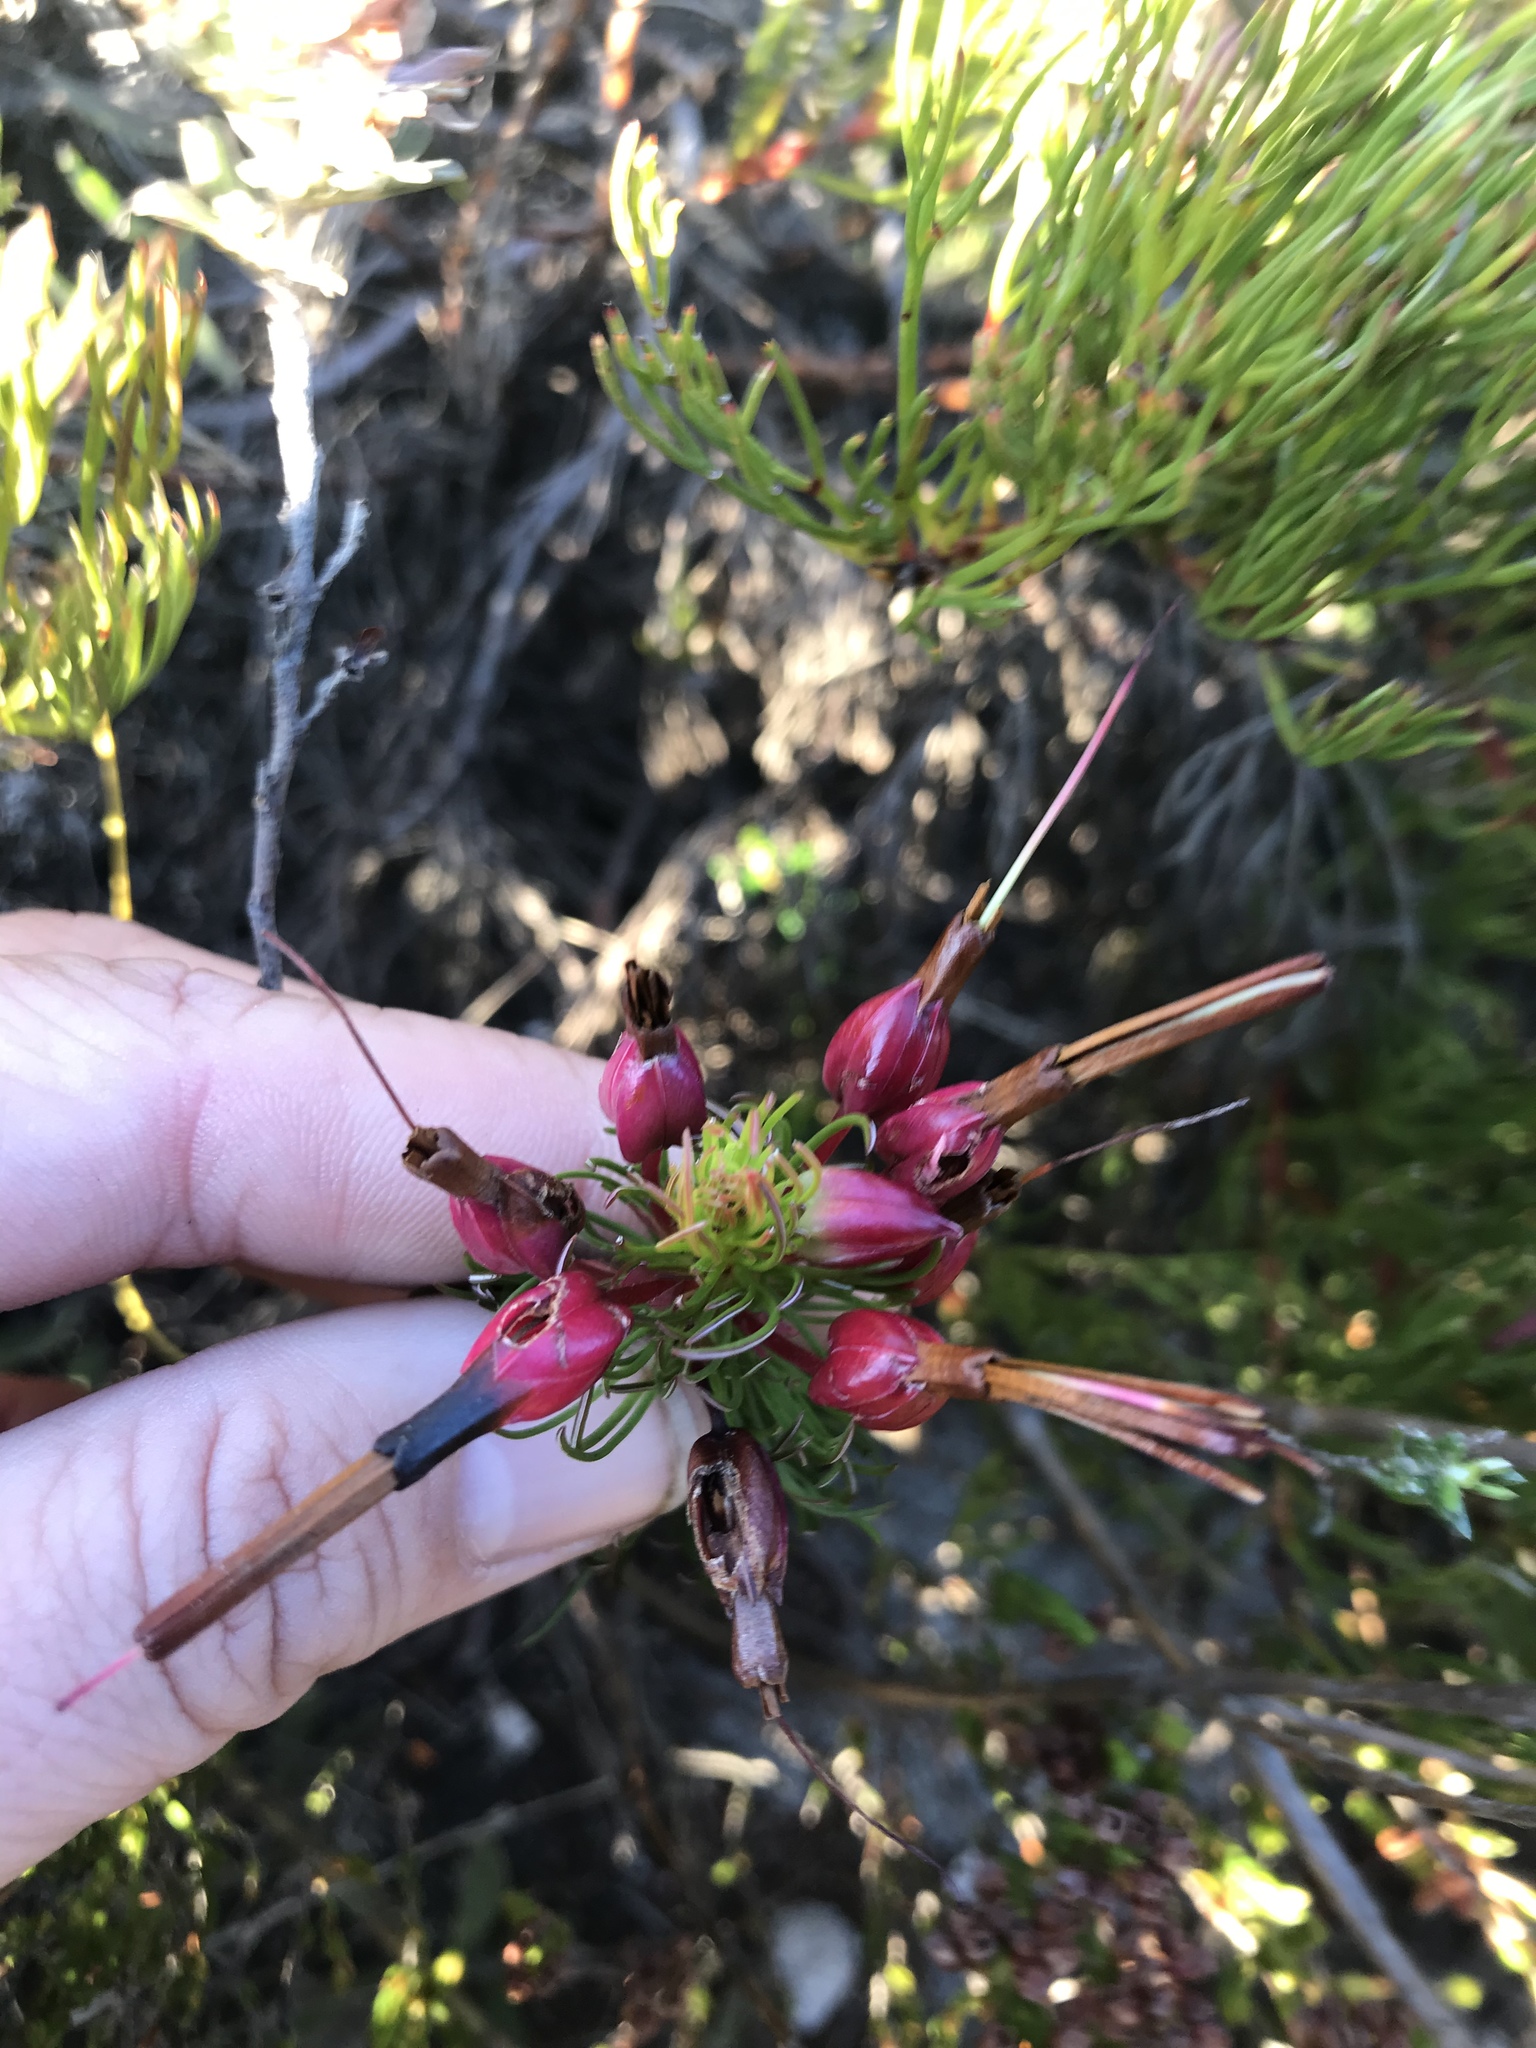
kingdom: Plantae
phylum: Tracheophyta
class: Magnoliopsida
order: Ericales
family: Ericaceae
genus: Erica
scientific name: Erica plukenetii
